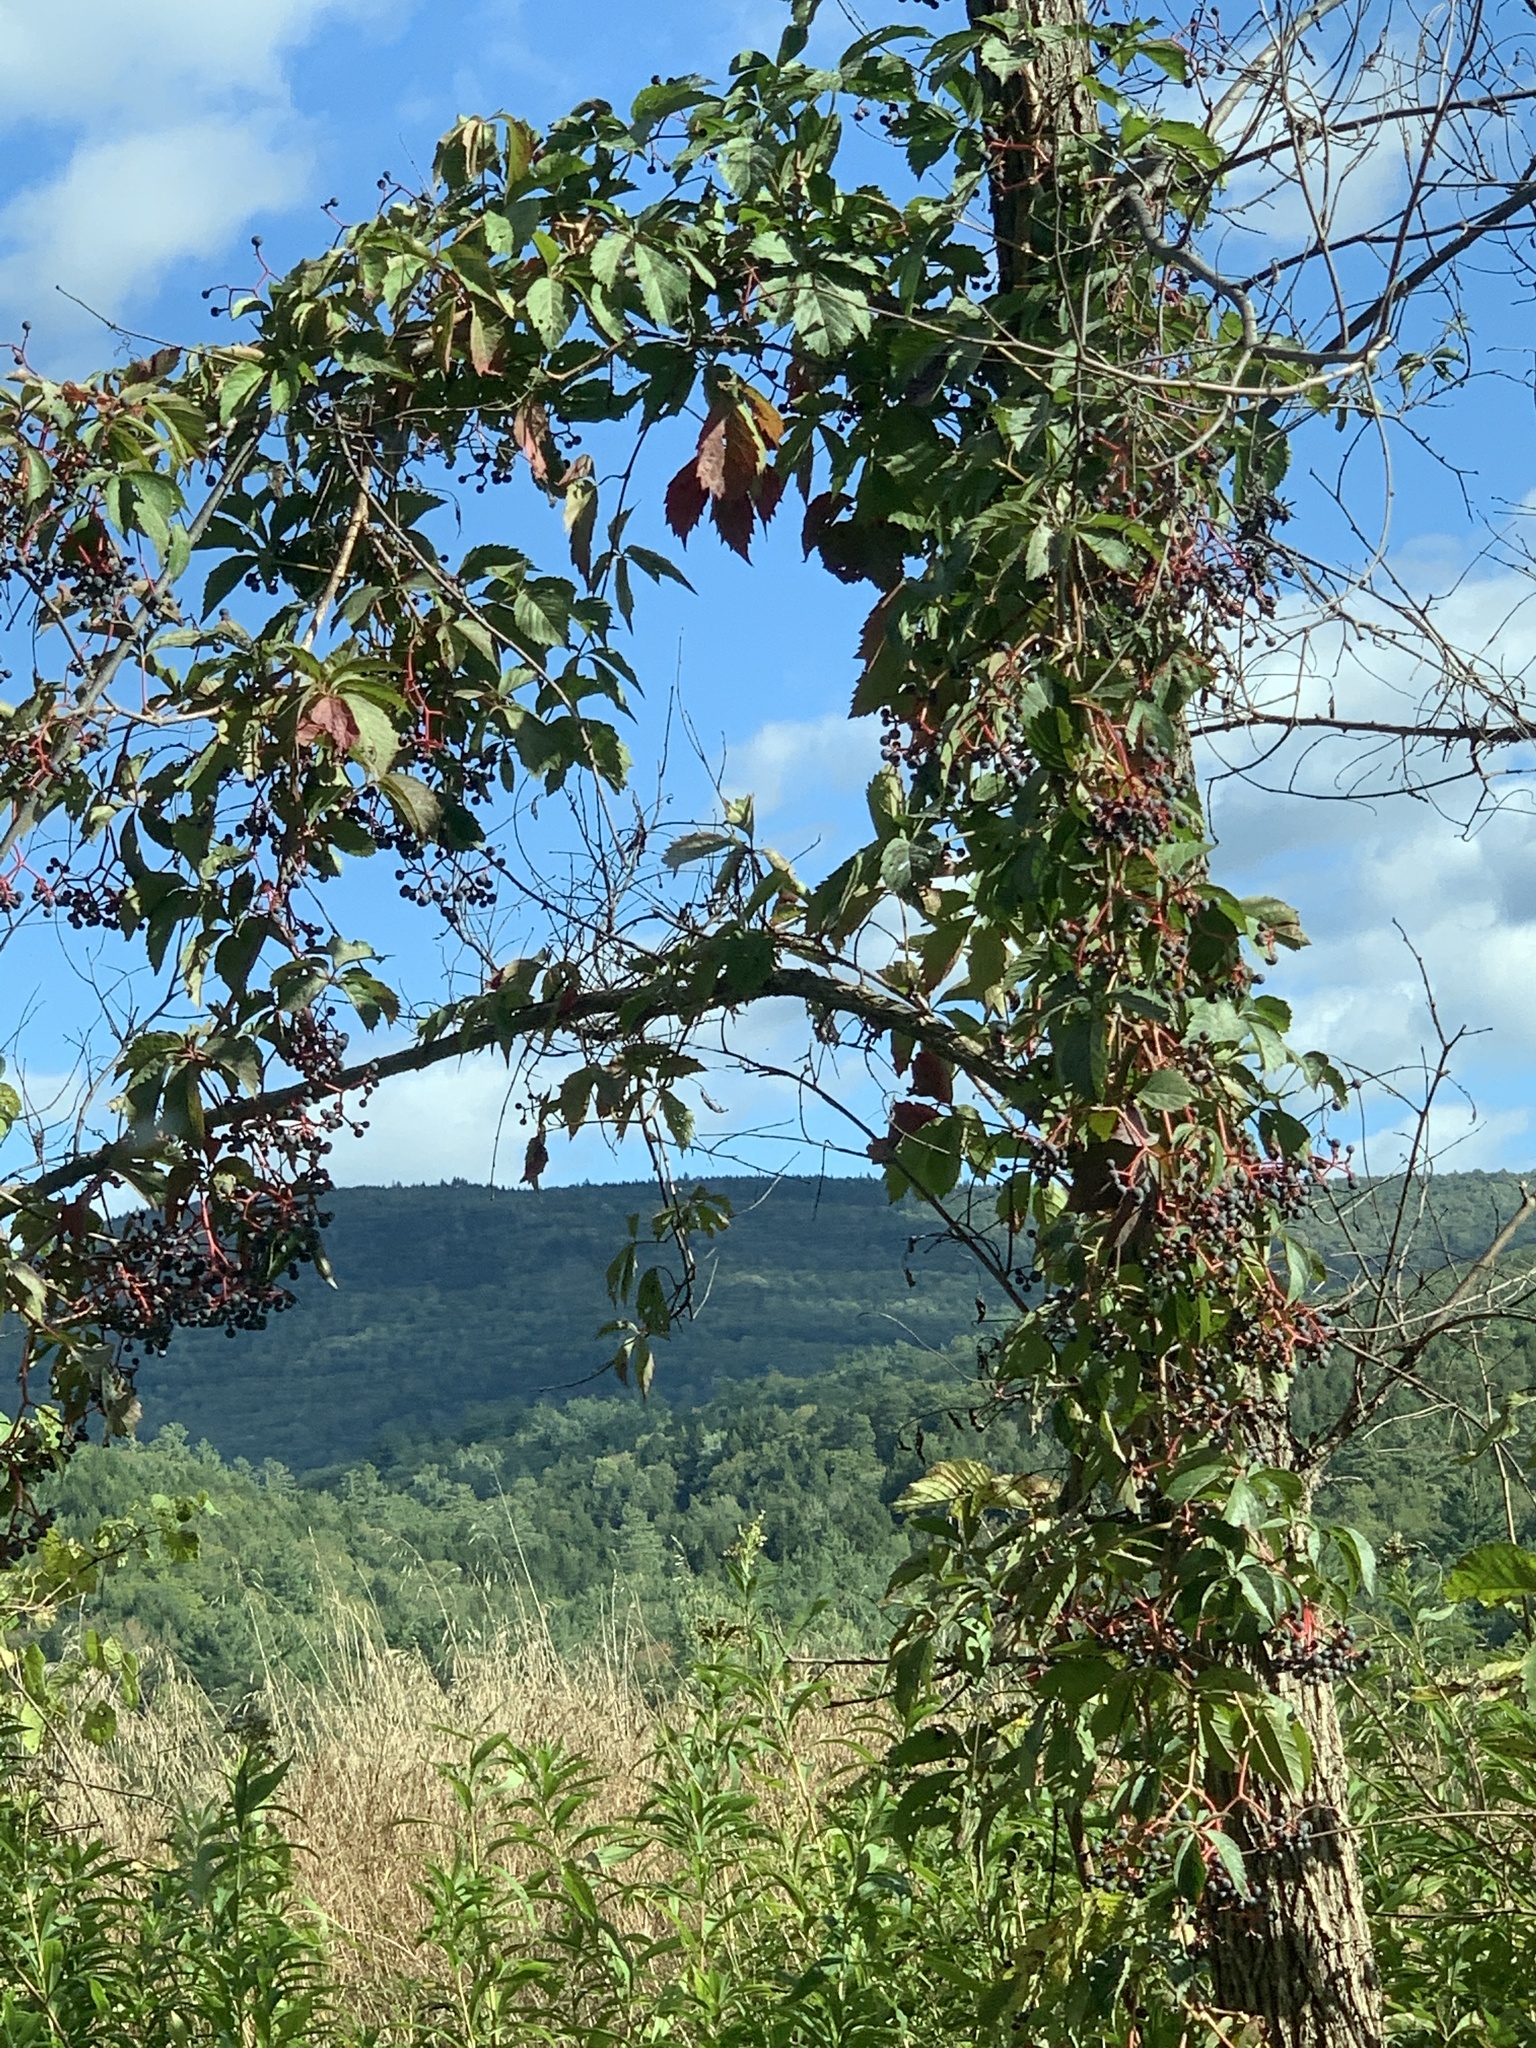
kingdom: Plantae
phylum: Tracheophyta
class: Magnoliopsida
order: Vitales
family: Vitaceae
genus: Parthenocissus
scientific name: Parthenocissus quinquefolia
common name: Virginia-creeper
